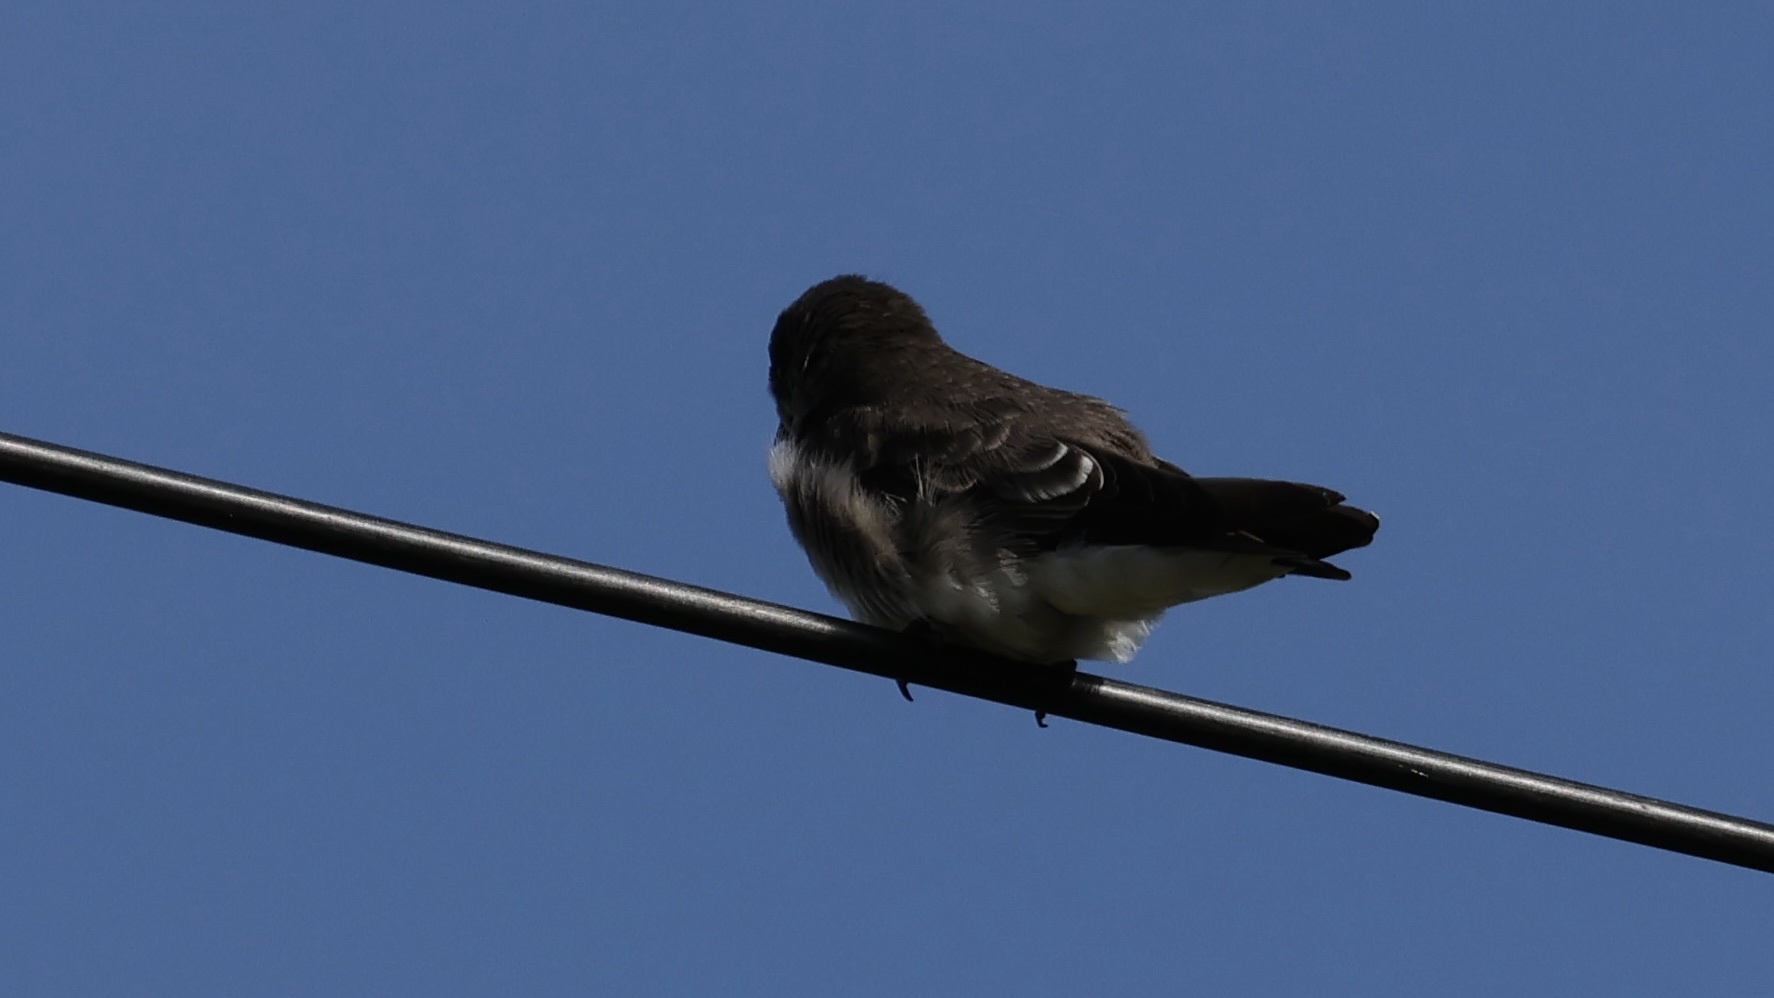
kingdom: Animalia
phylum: Chordata
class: Aves
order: Passeriformes
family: Hirundinidae
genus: Stelgidopteryx
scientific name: Stelgidopteryx serripennis
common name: Northern rough-winged swallow
